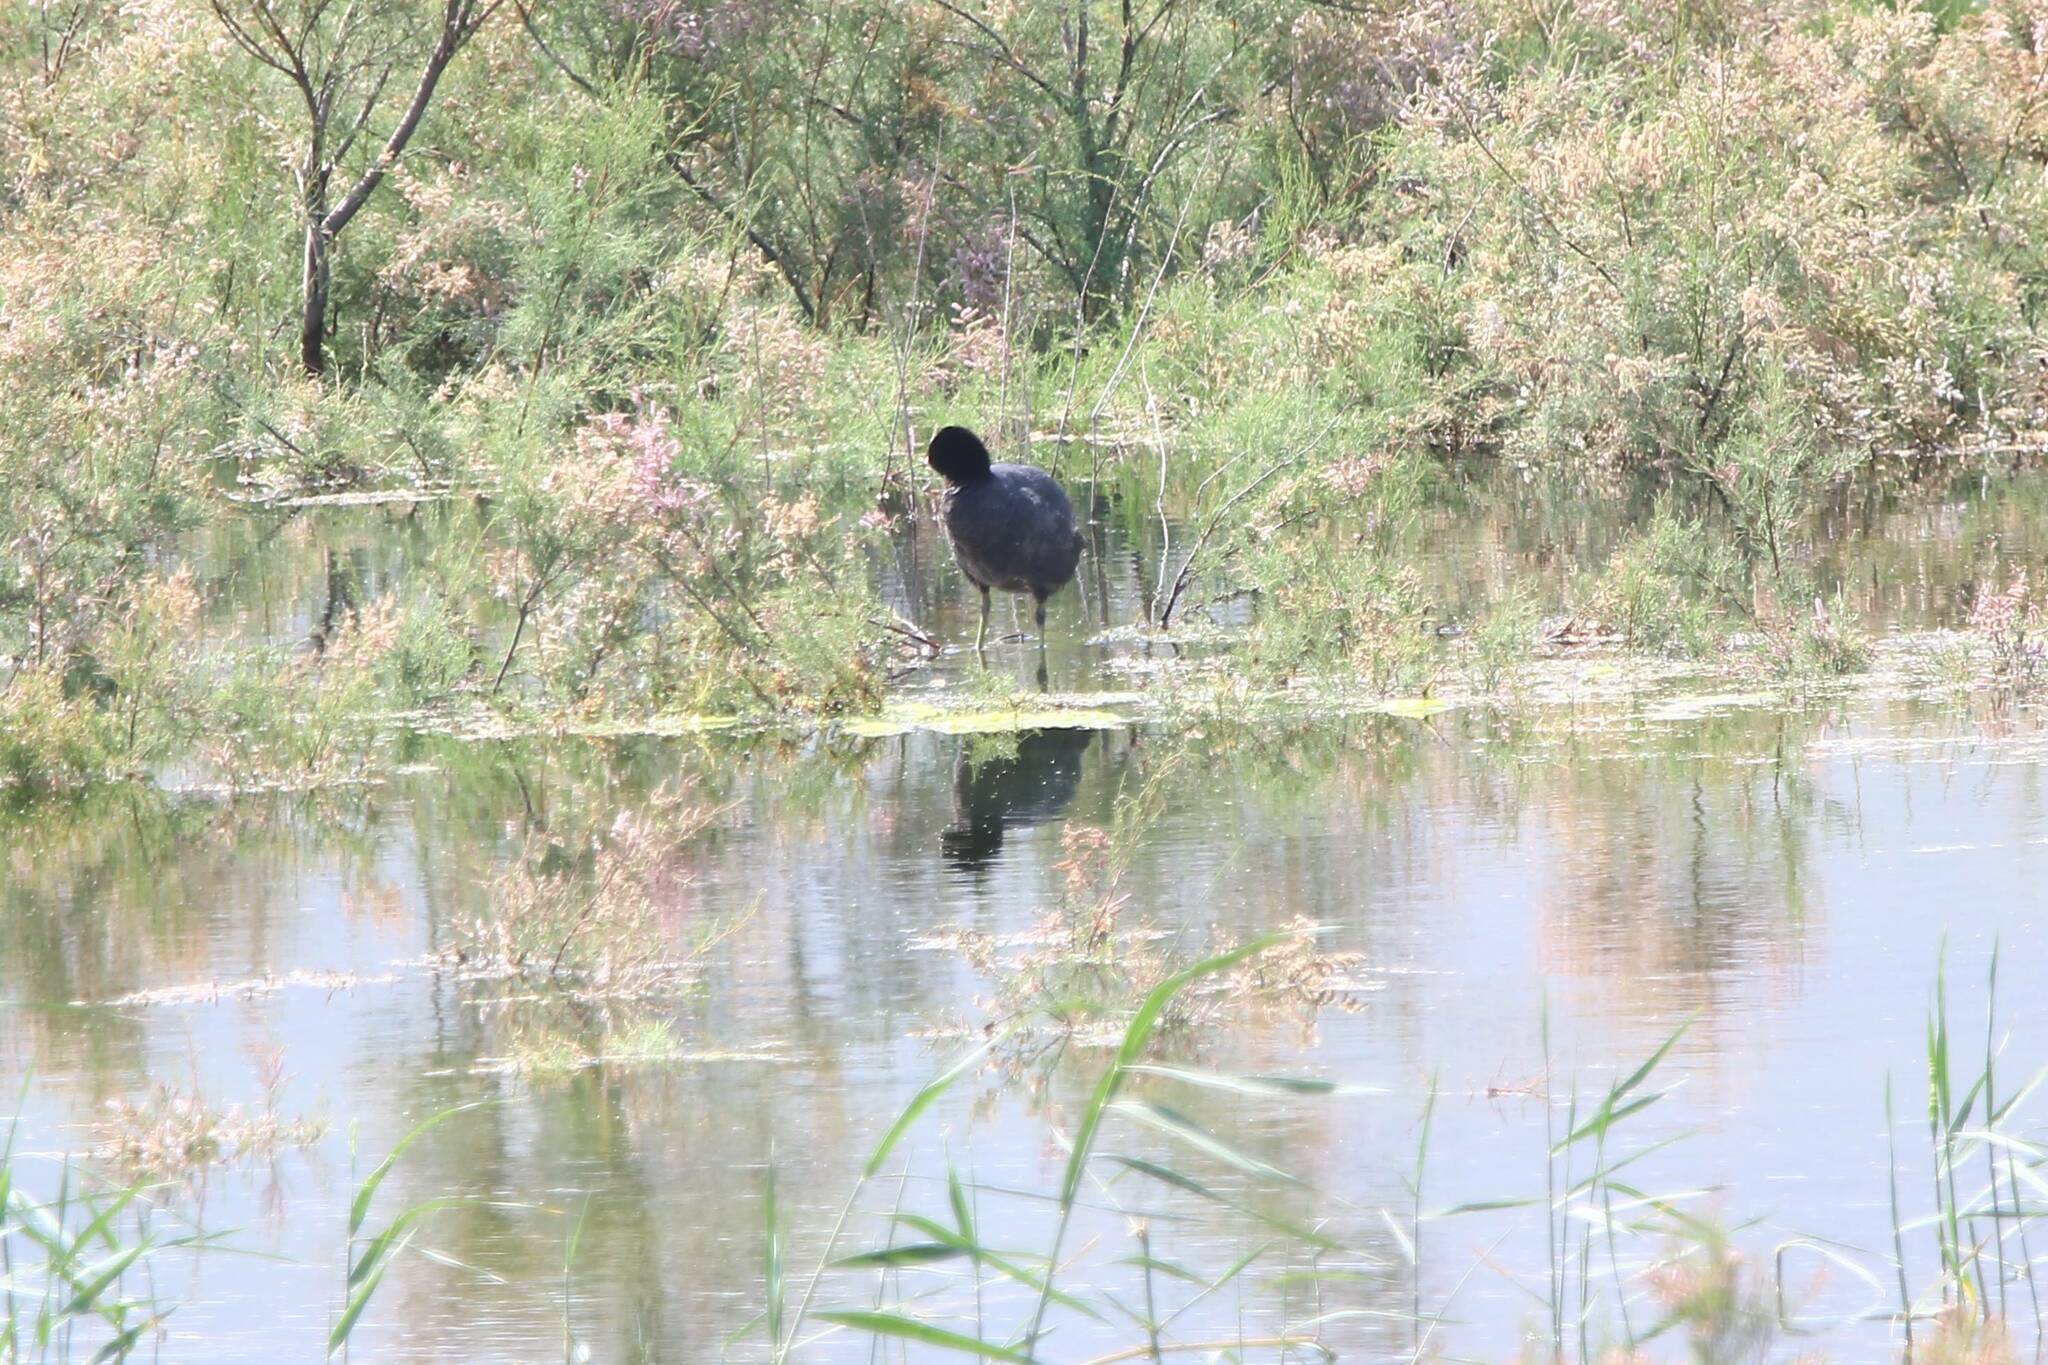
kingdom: Animalia
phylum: Chordata
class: Aves
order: Gruiformes
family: Rallidae
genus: Fulica
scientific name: Fulica atra
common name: Eurasian coot
